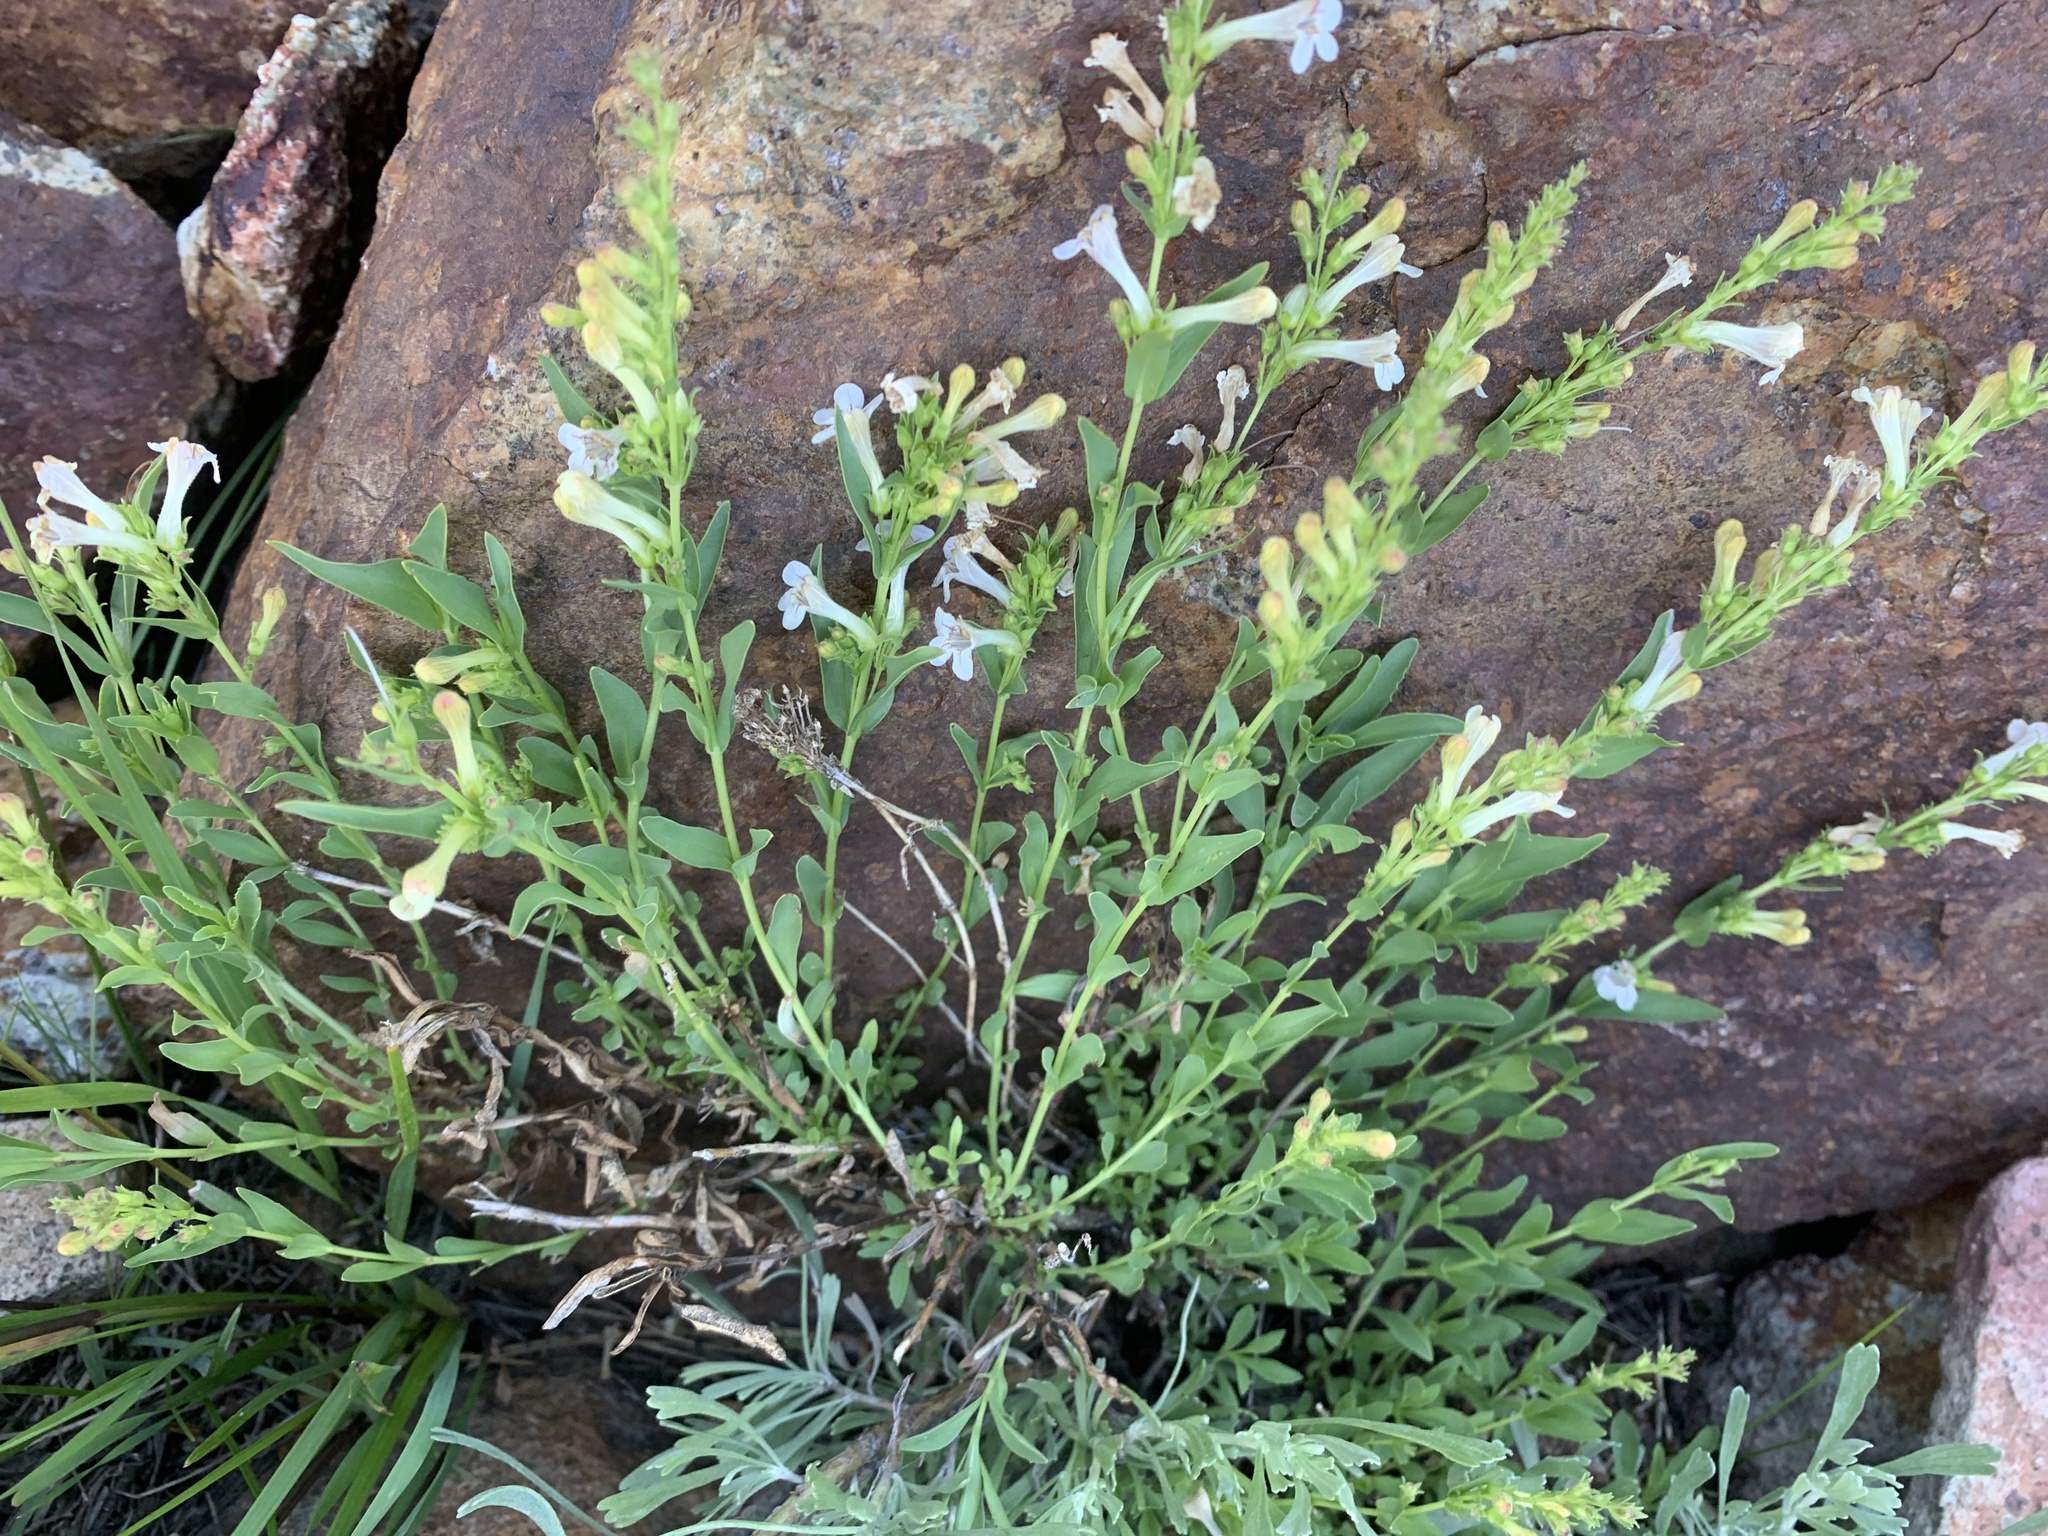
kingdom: Plantae
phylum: Tracheophyta
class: Magnoliopsida
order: Lamiales
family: Plantaginaceae
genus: Penstemon
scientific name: Penstemon deustus
